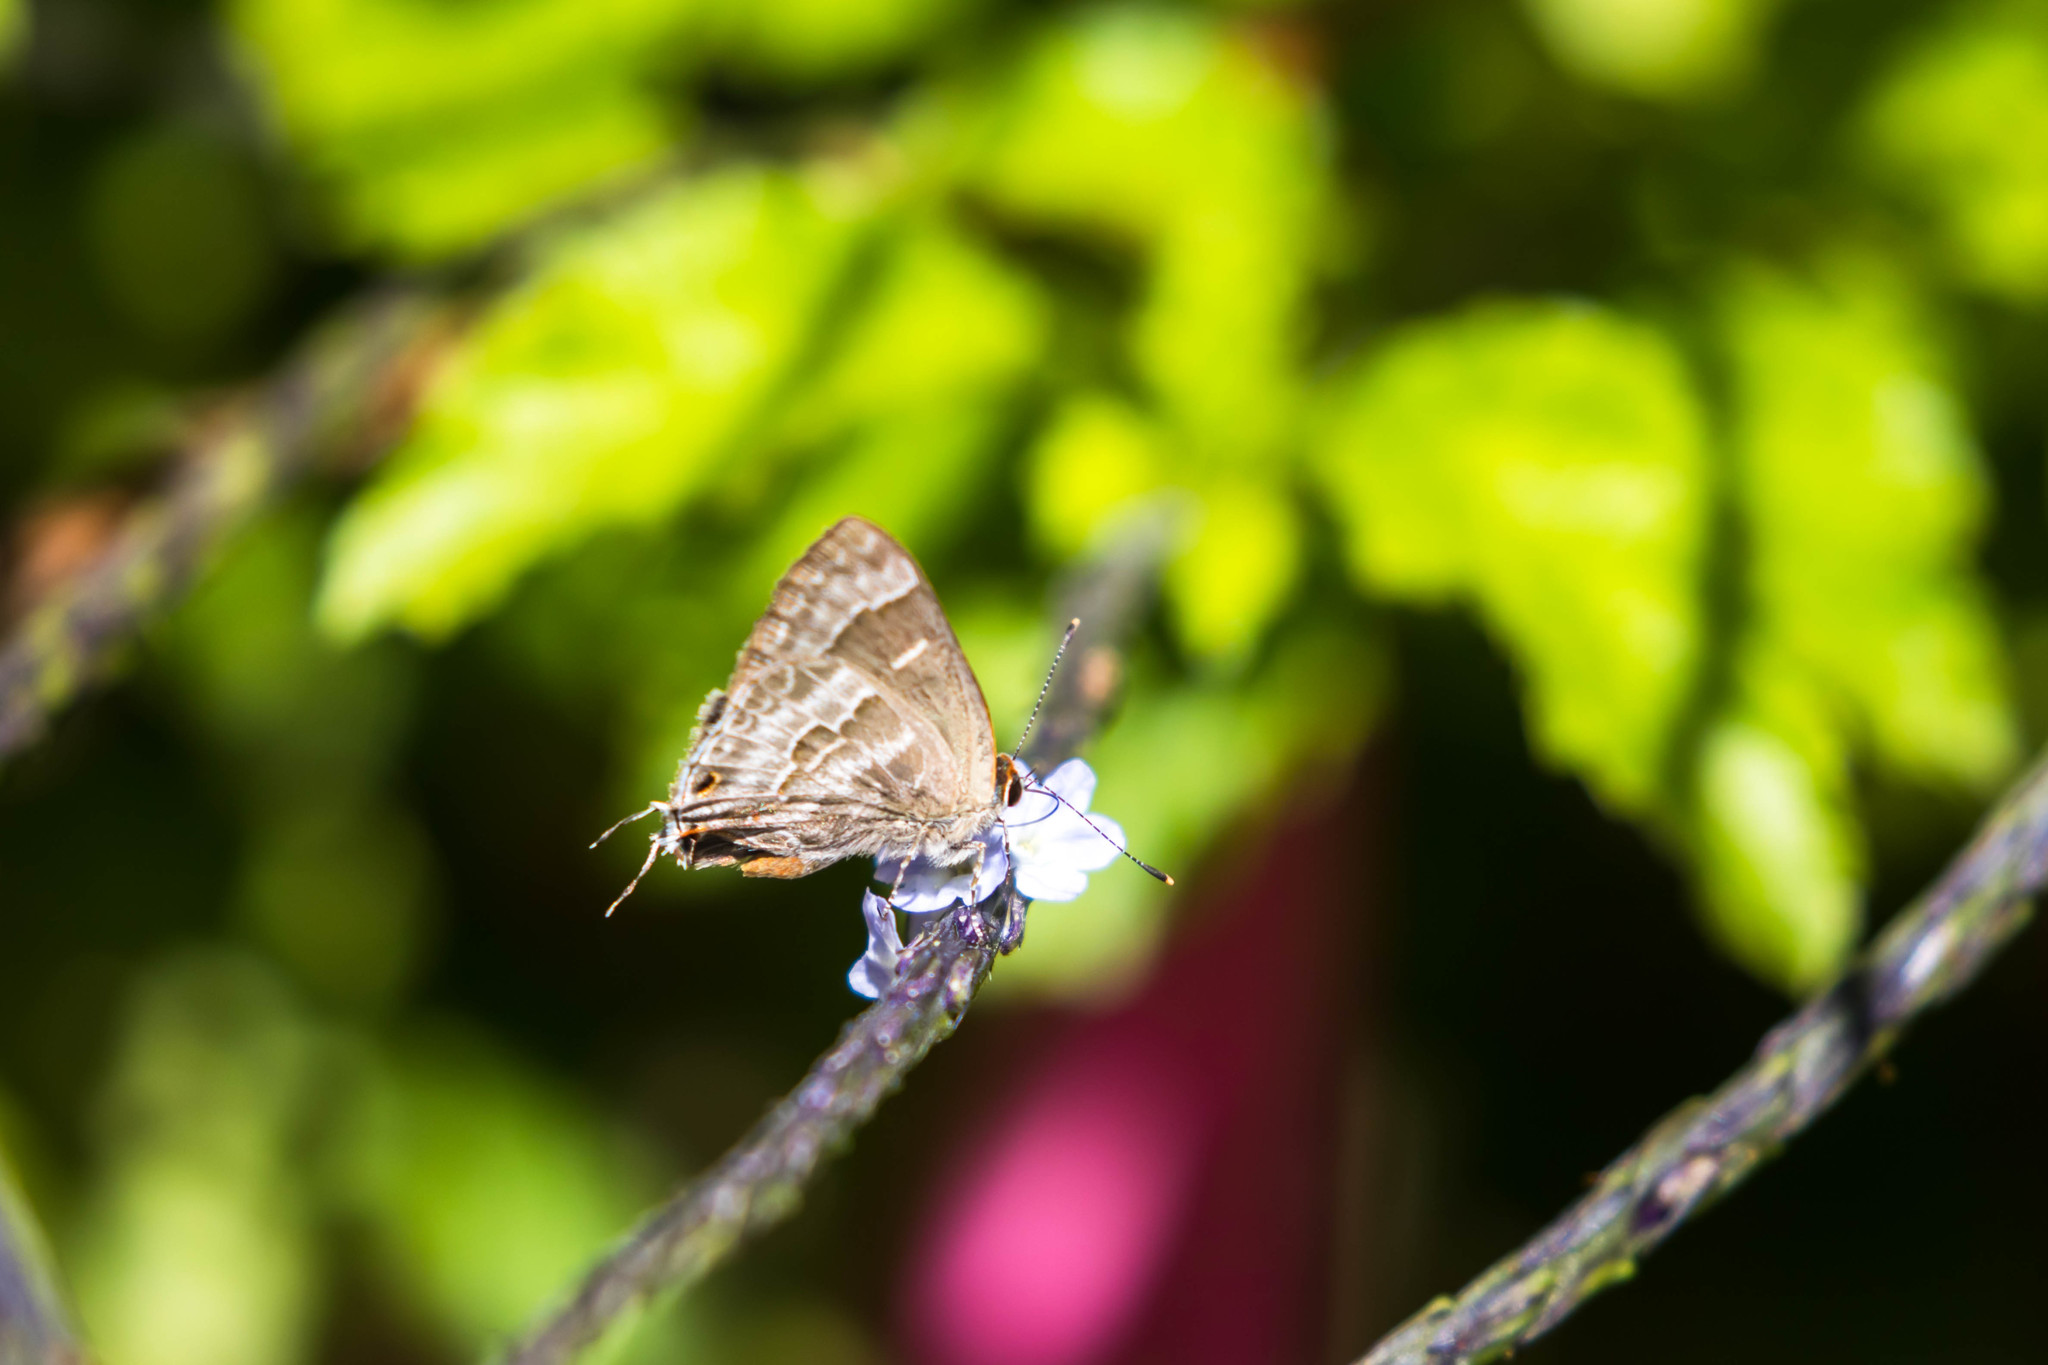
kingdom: Animalia
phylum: Arthropoda
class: Insecta
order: Lepidoptera
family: Lycaenidae
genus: Thecla
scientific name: Thecla yojoa
